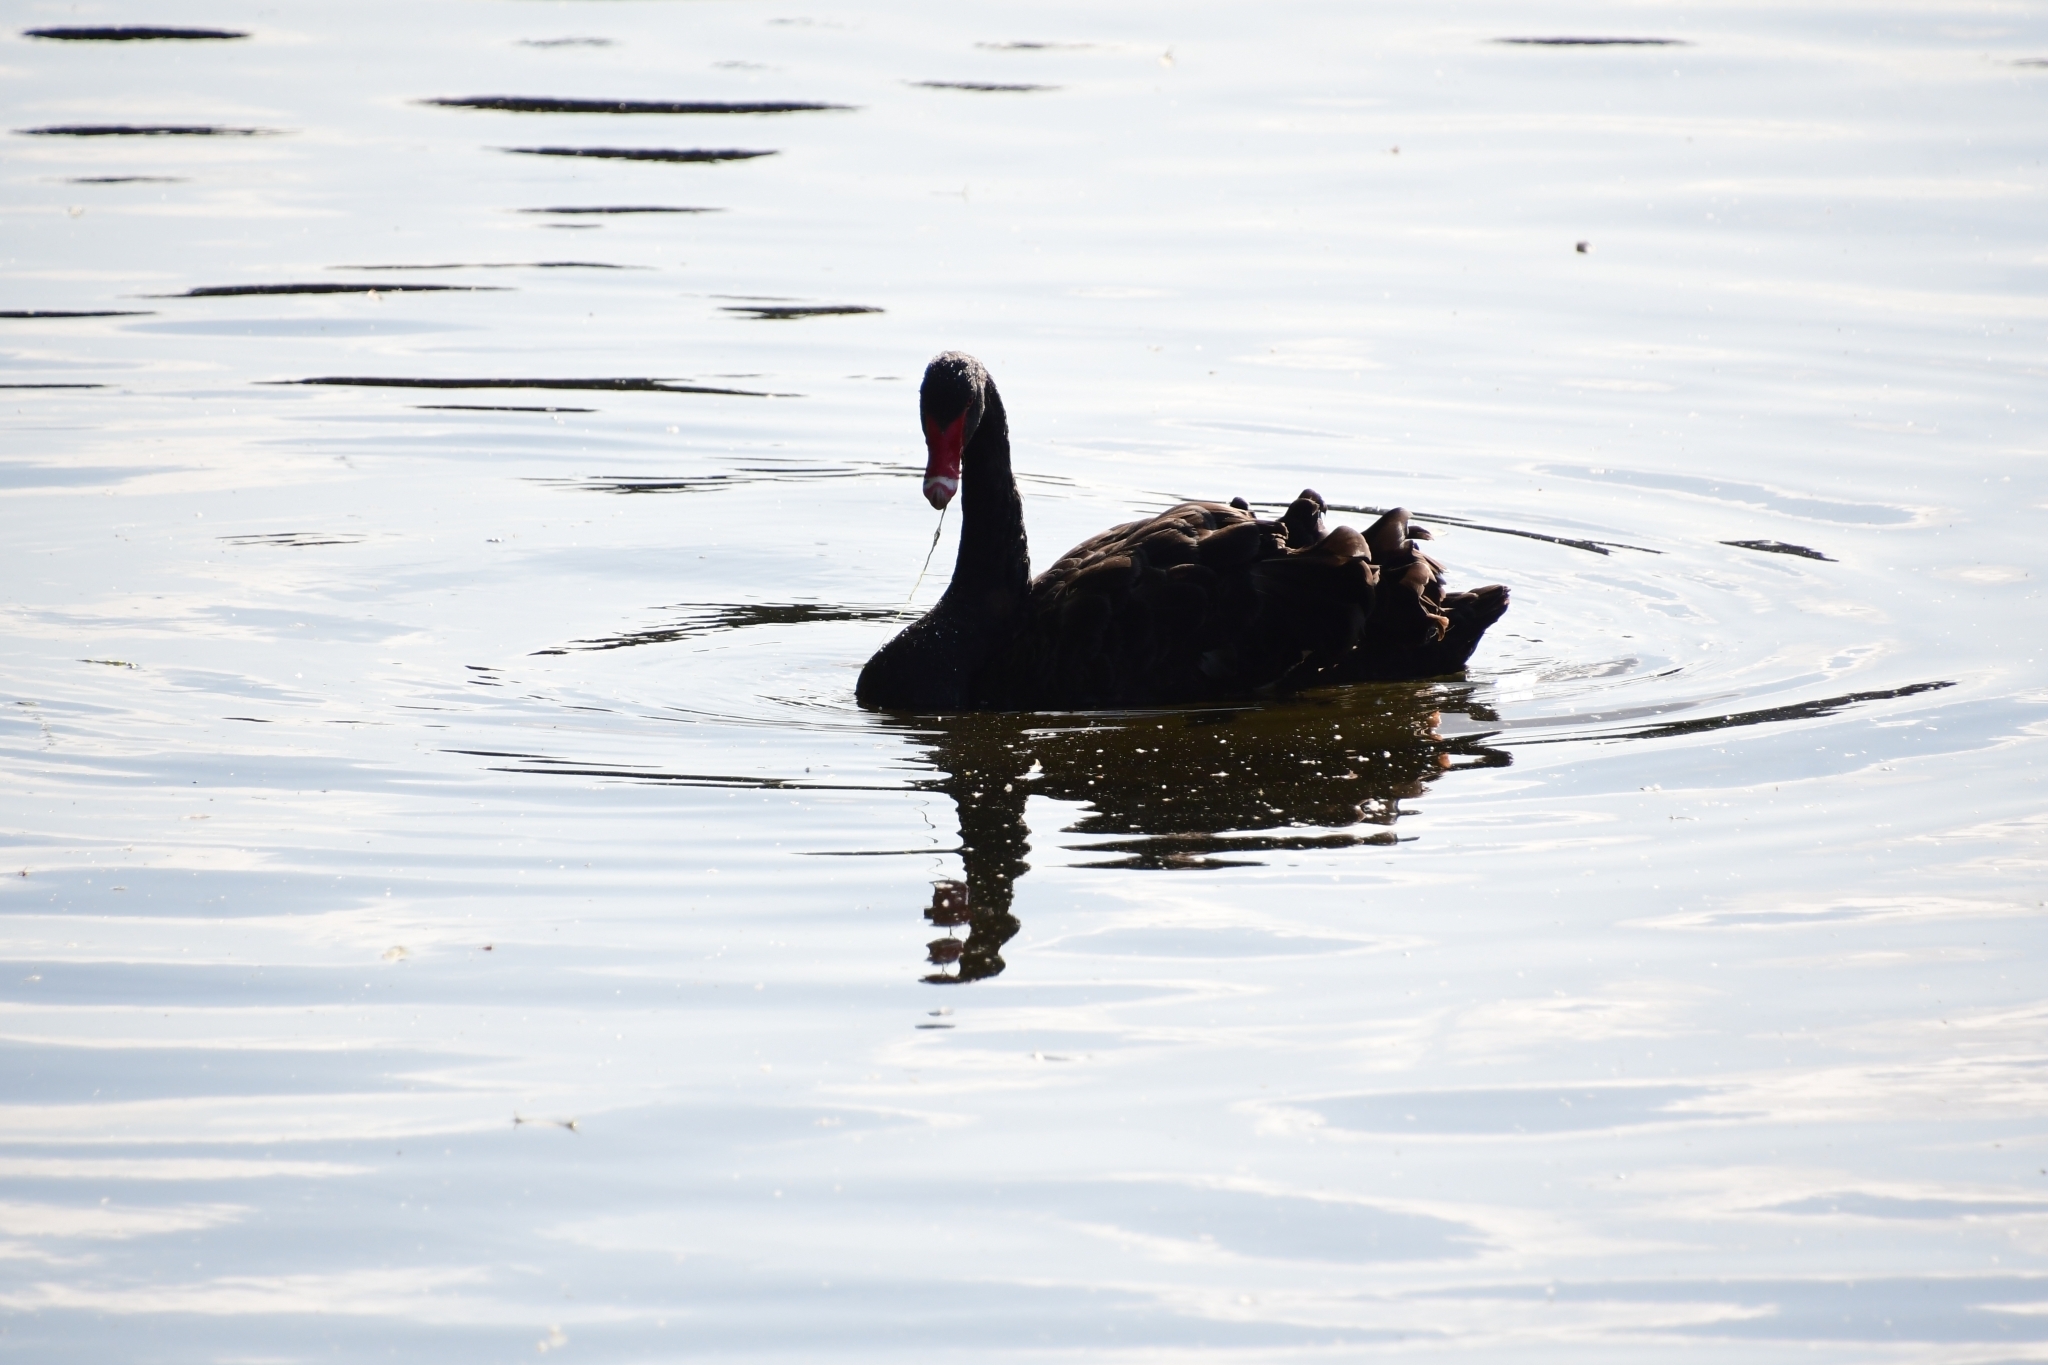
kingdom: Animalia
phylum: Chordata
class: Aves
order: Anseriformes
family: Anatidae
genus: Cygnus
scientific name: Cygnus atratus
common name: Black swan
